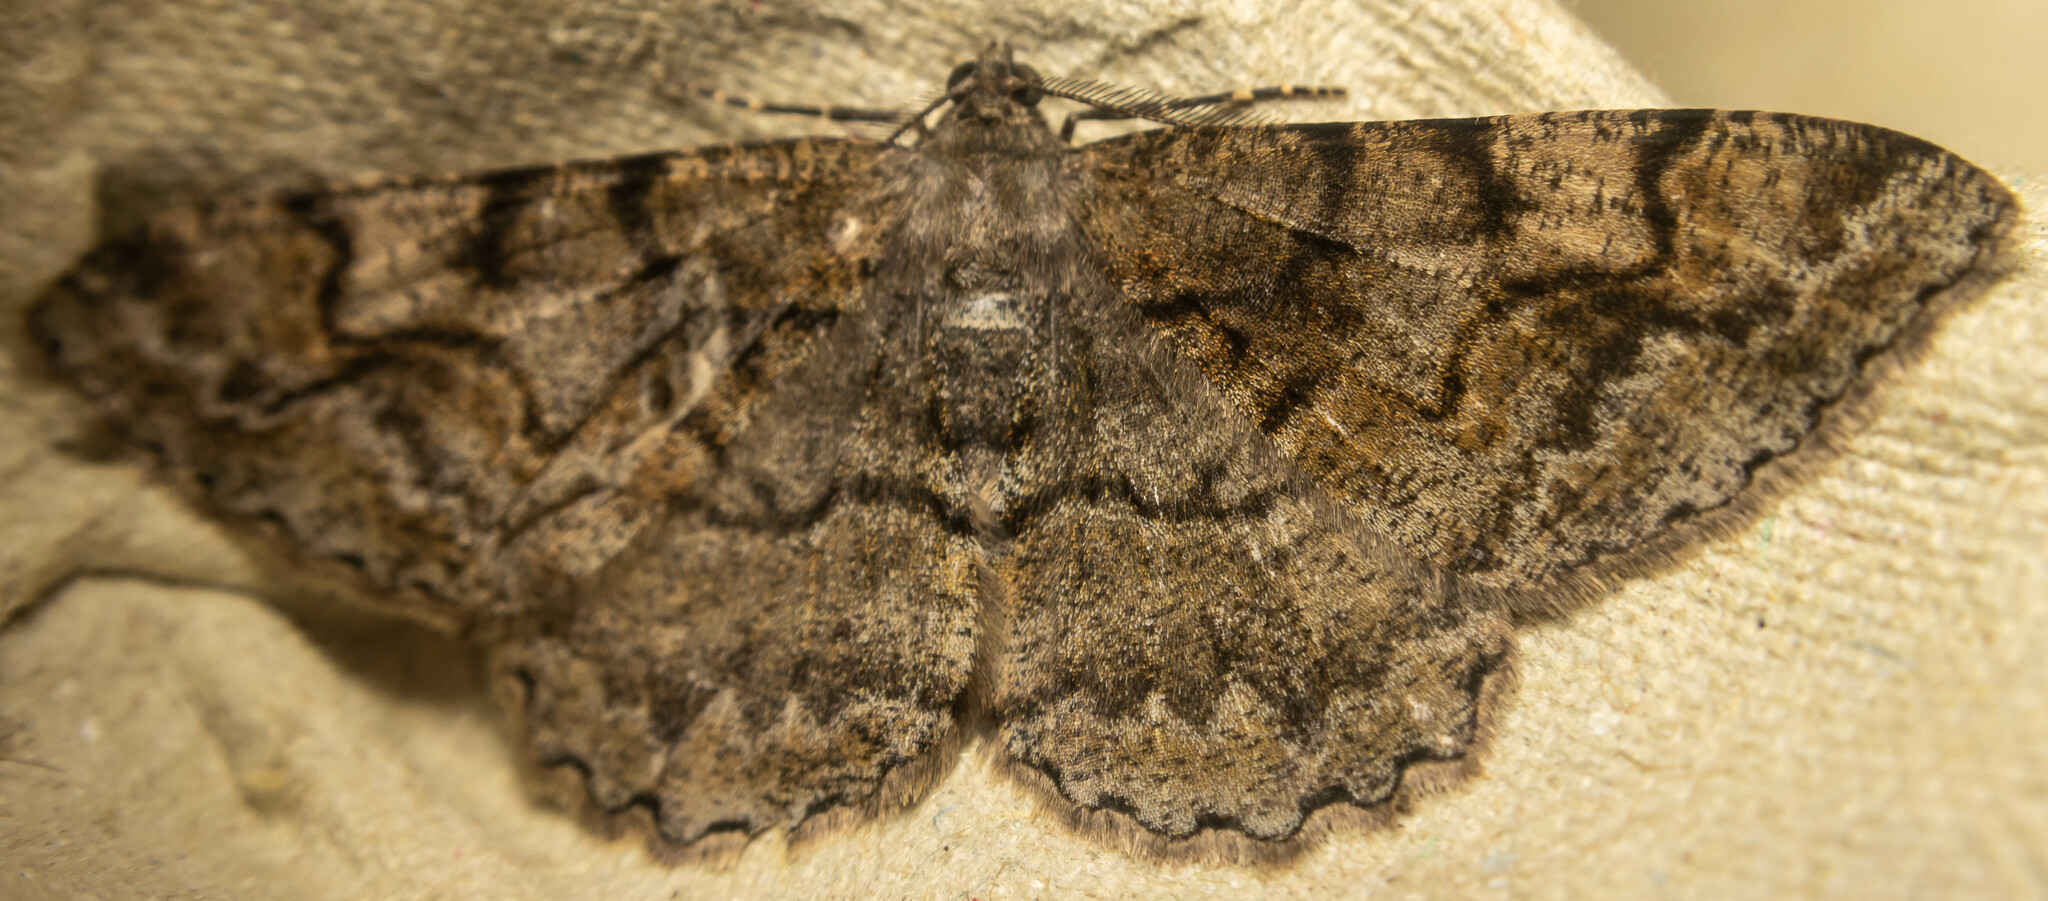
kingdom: Animalia
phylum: Arthropoda
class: Insecta
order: Lepidoptera
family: Geometridae
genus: Alcis
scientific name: Alcis repandata
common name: Mottled beauty
